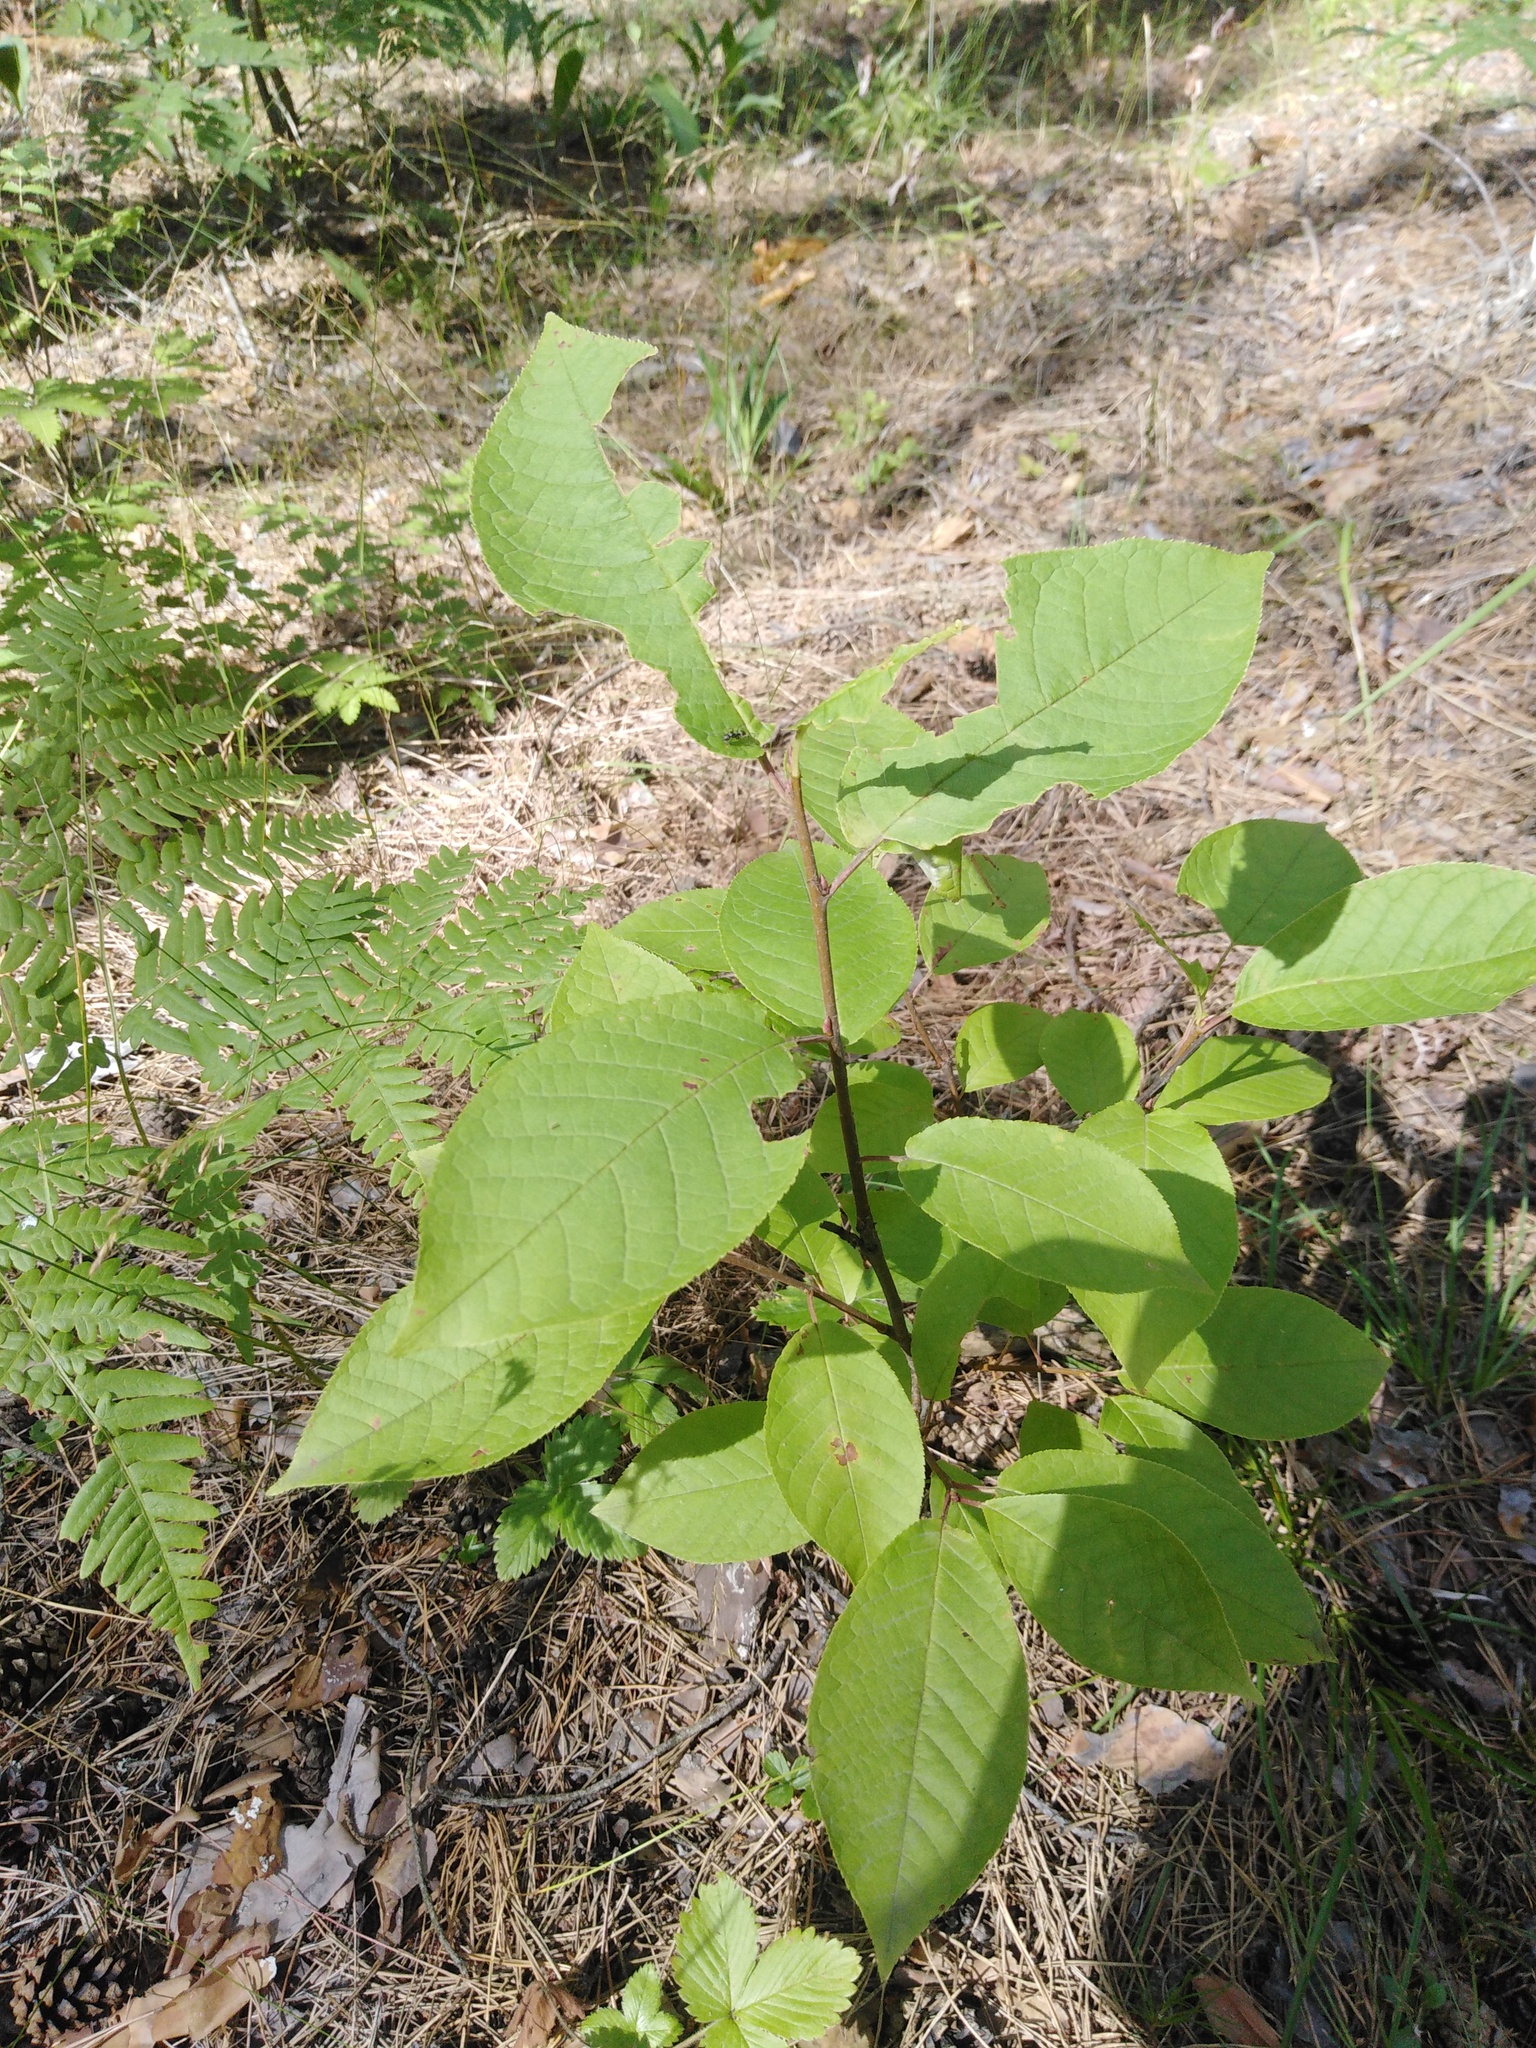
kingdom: Plantae
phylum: Tracheophyta
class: Magnoliopsida
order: Rosales
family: Rosaceae
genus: Prunus
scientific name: Prunus padus
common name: Bird cherry
